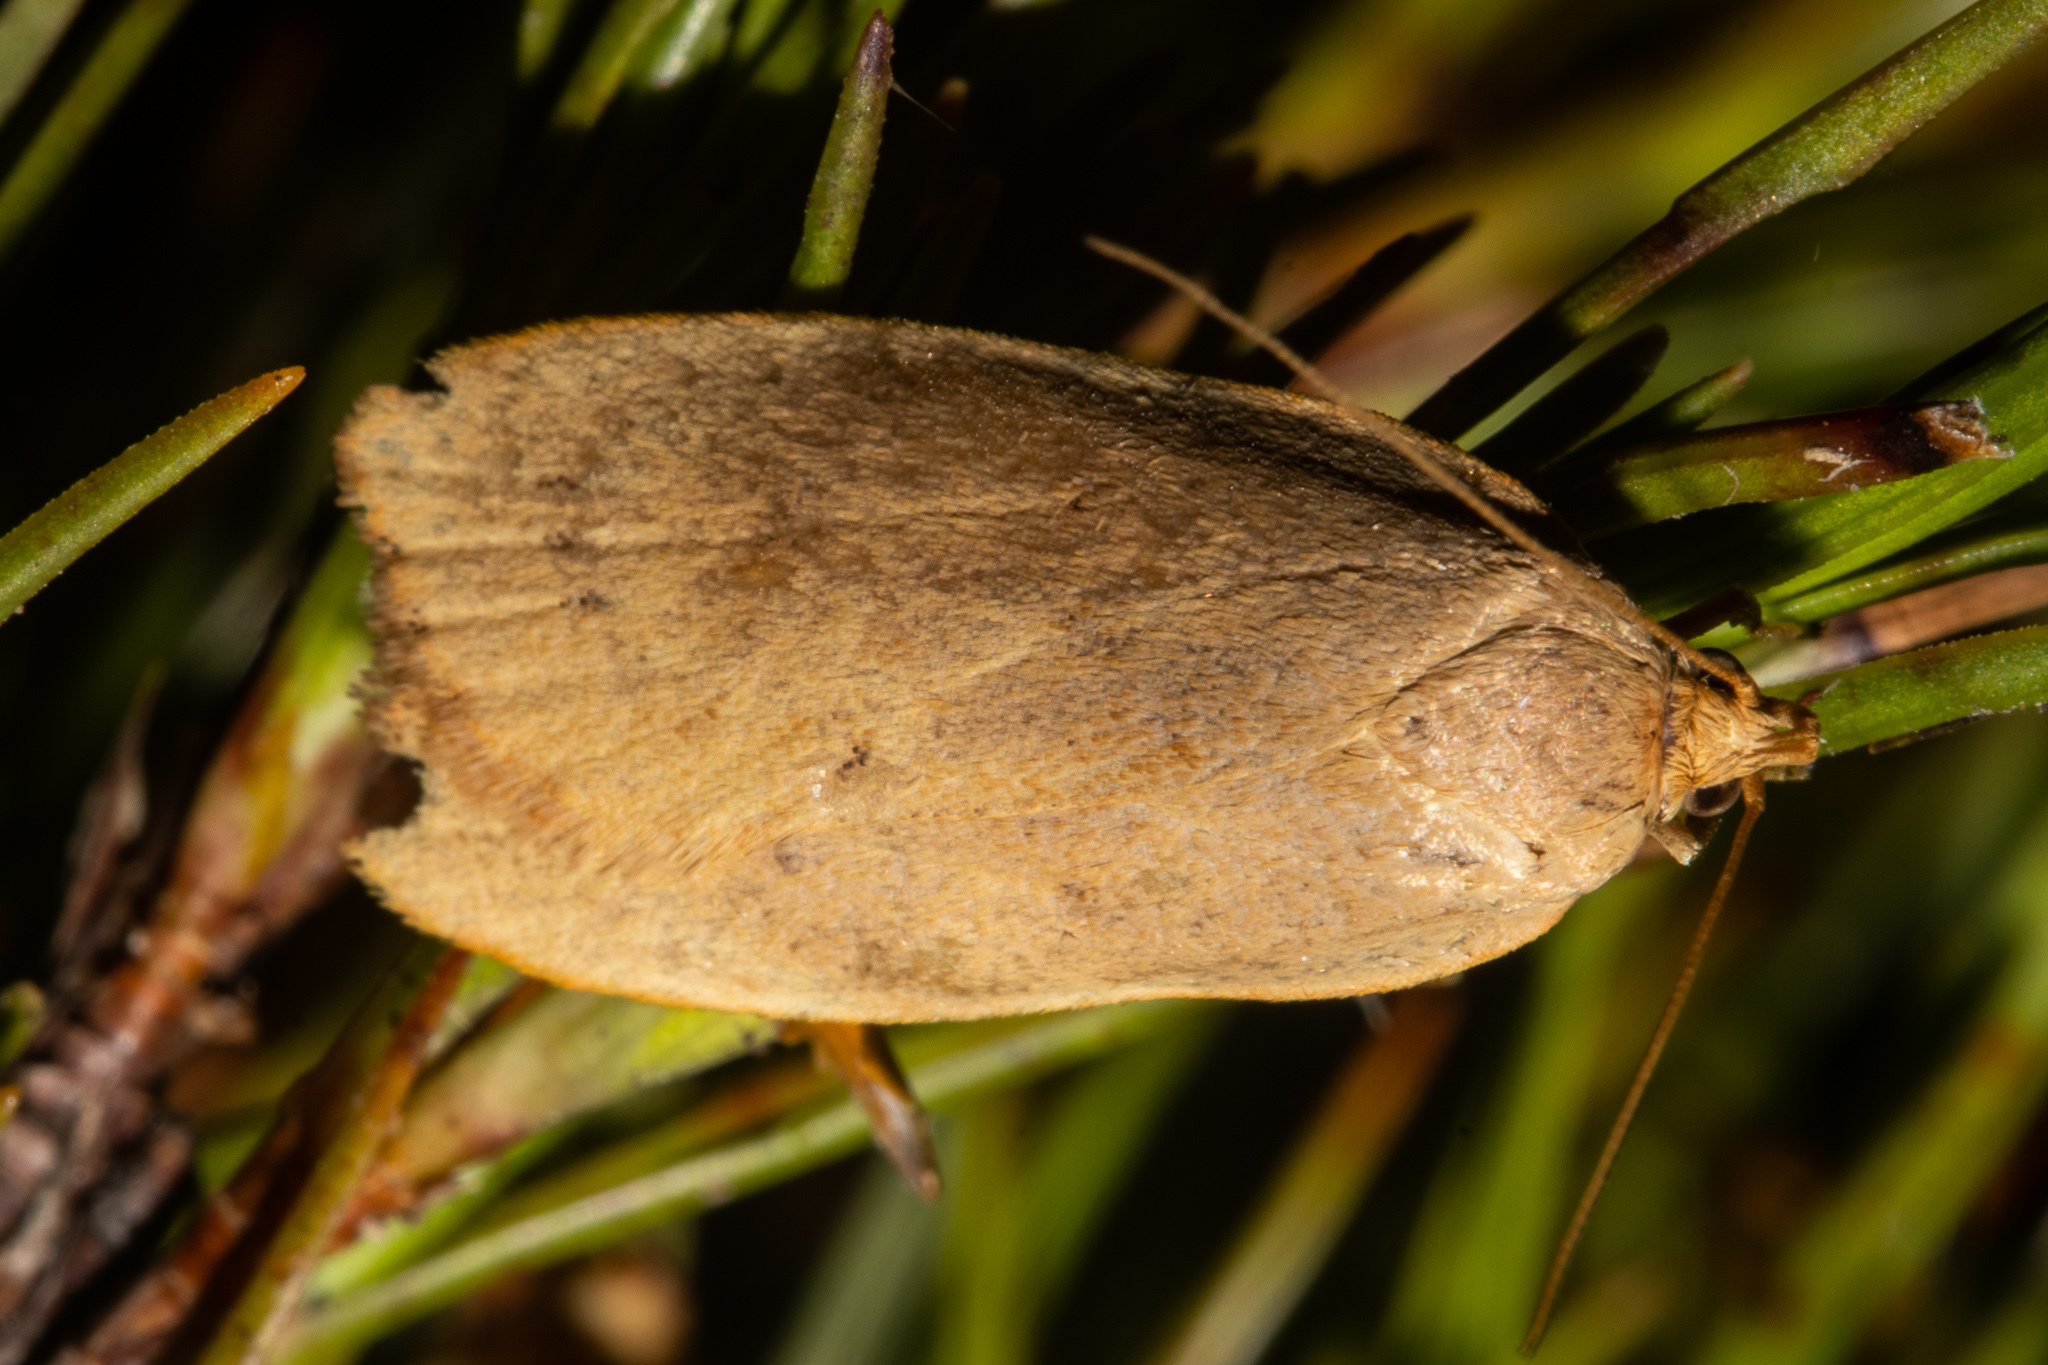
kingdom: Animalia
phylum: Arthropoda
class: Insecta
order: Lepidoptera
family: Depressariidae
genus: Phaeosaces
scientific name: Phaeosaces coarctatella
